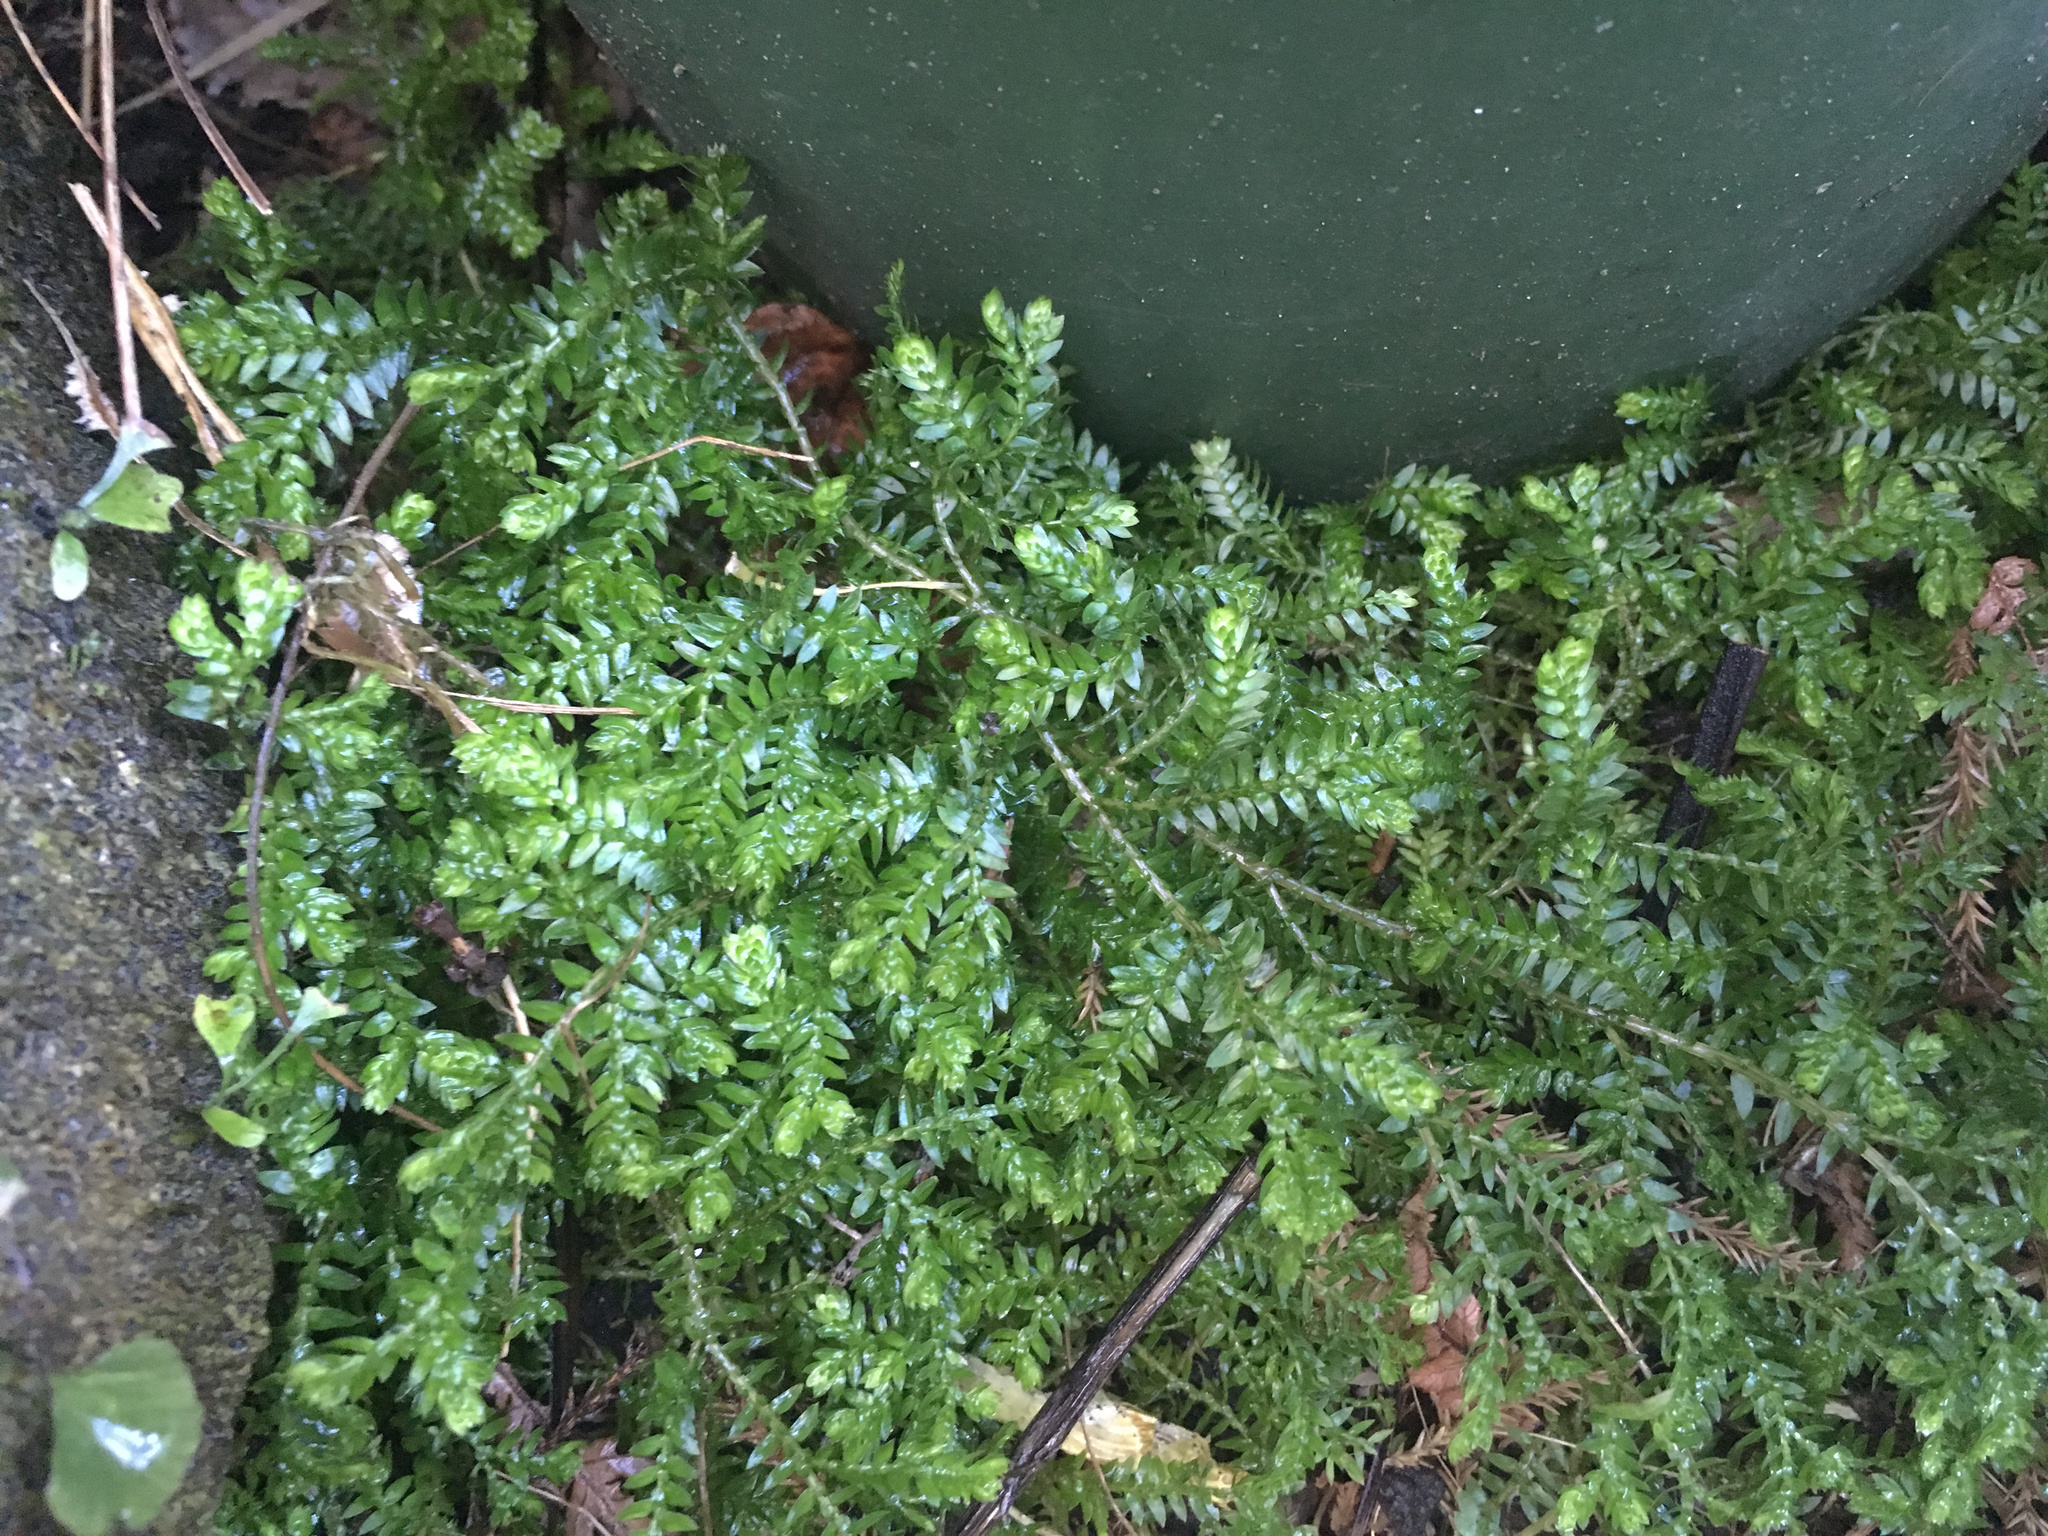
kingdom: Plantae
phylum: Tracheophyta
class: Lycopodiopsida
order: Selaginellales
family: Selaginellaceae
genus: Selaginella
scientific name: Selaginella kraussiana
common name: Krauss' spikemoss
